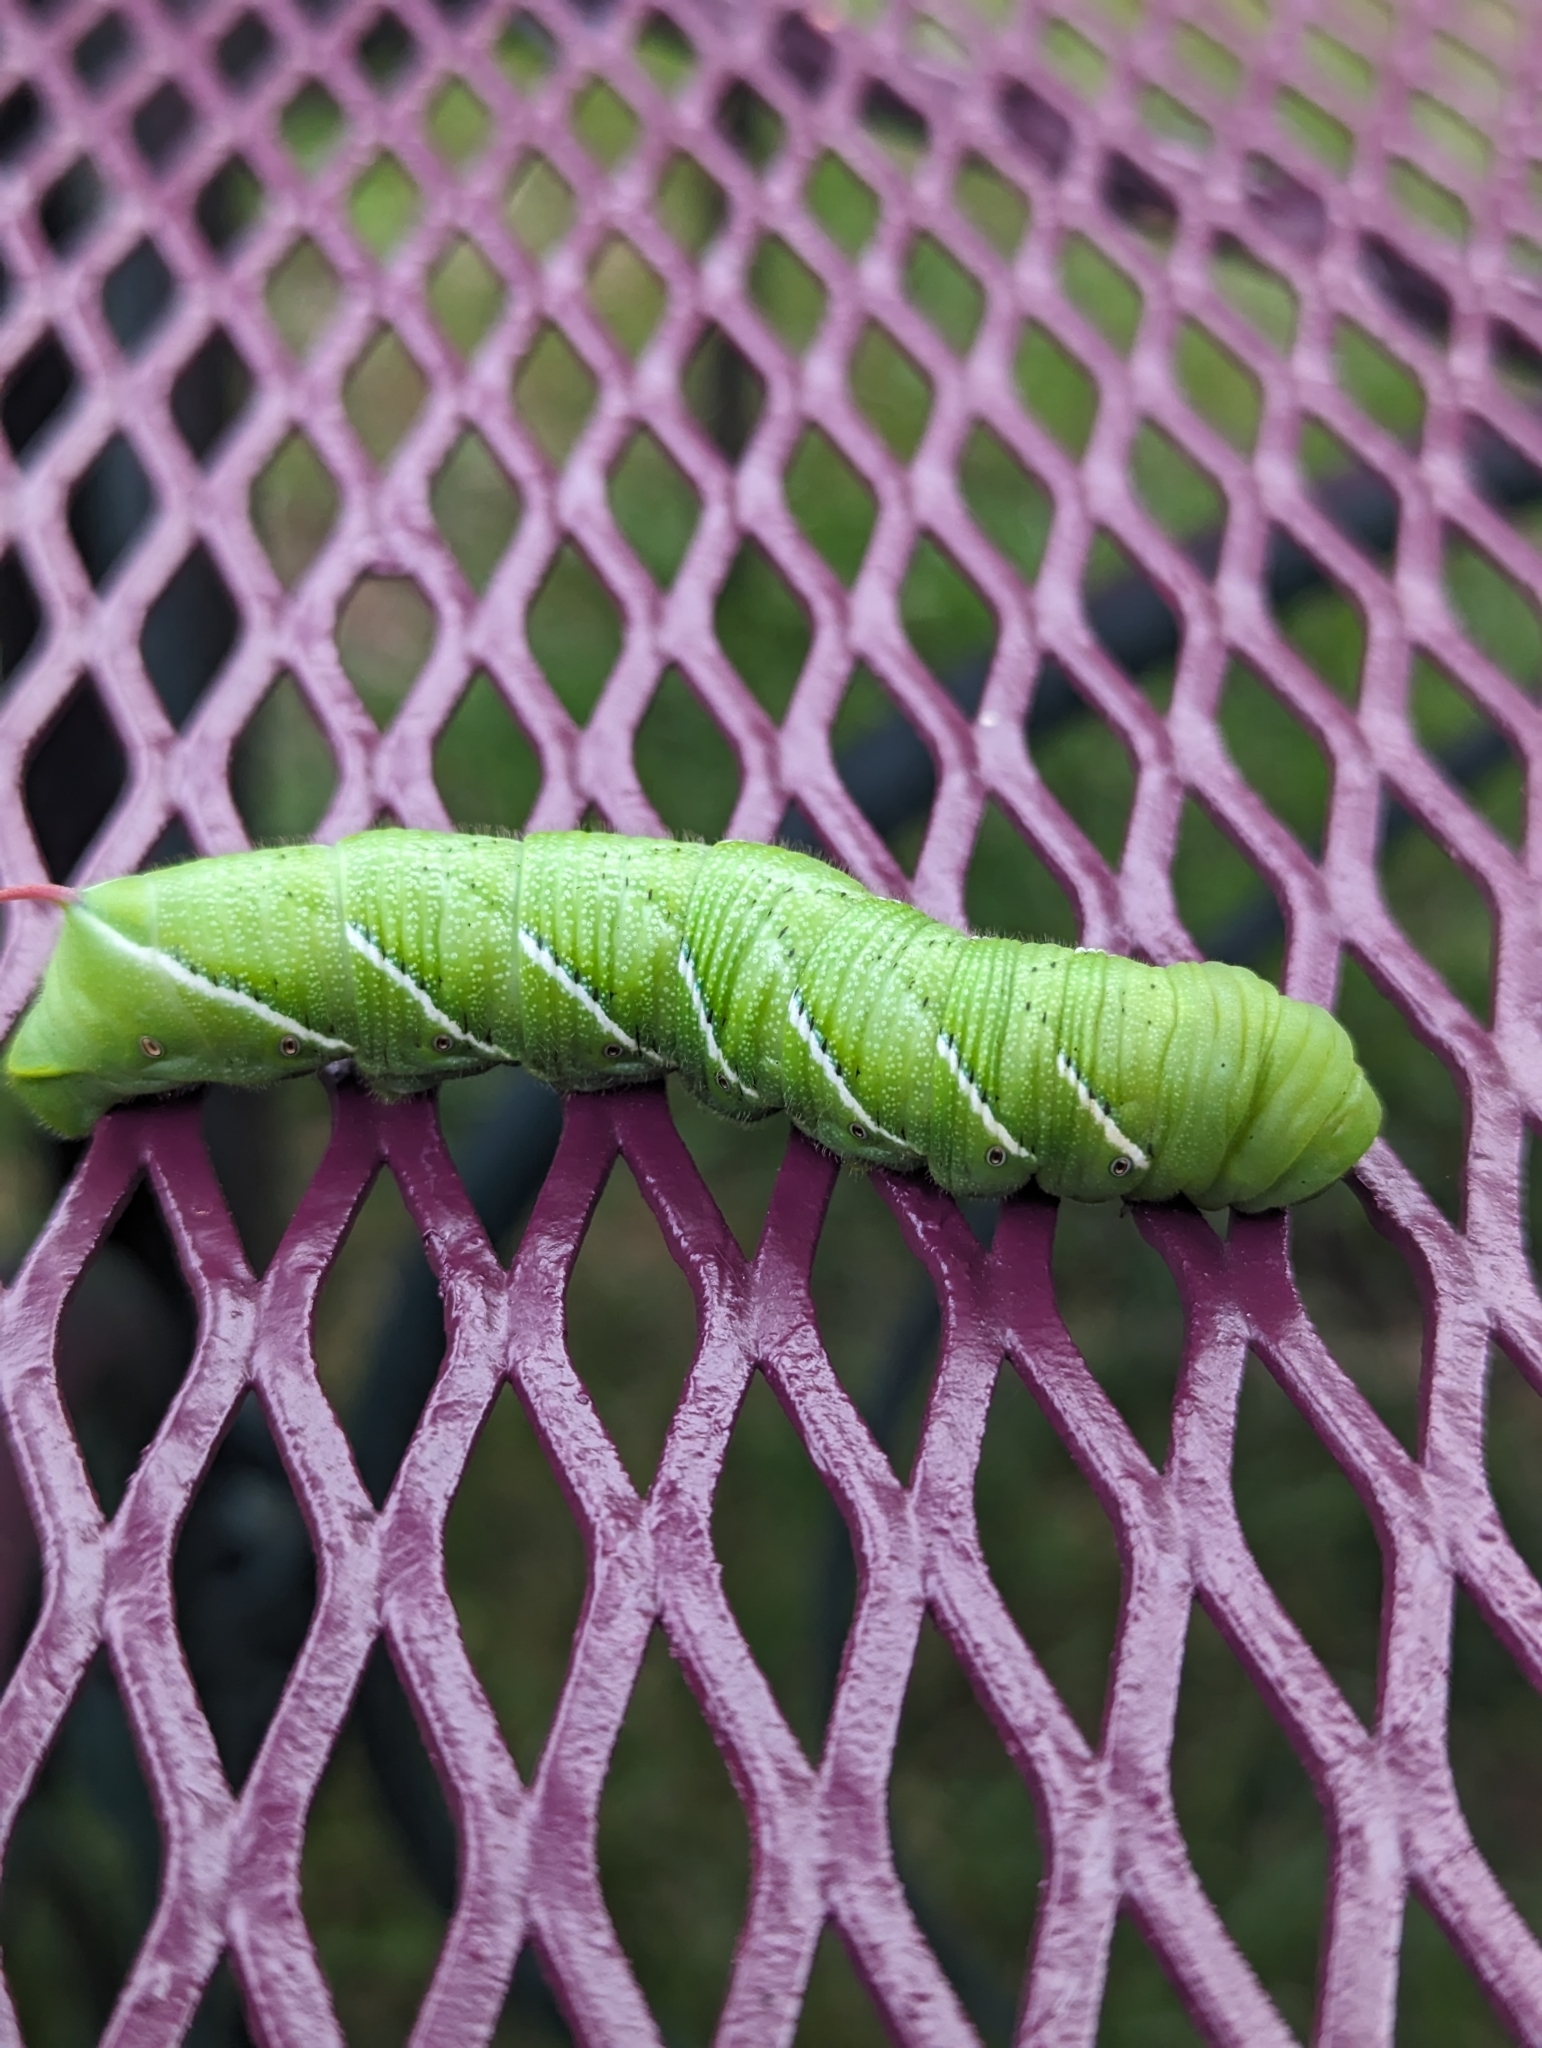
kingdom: Animalia
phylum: Arthropoda
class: Insecta
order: Lepidoptera
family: Sphingidae
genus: Manduca
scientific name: Manduca sexta
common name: Carolina sphinx
